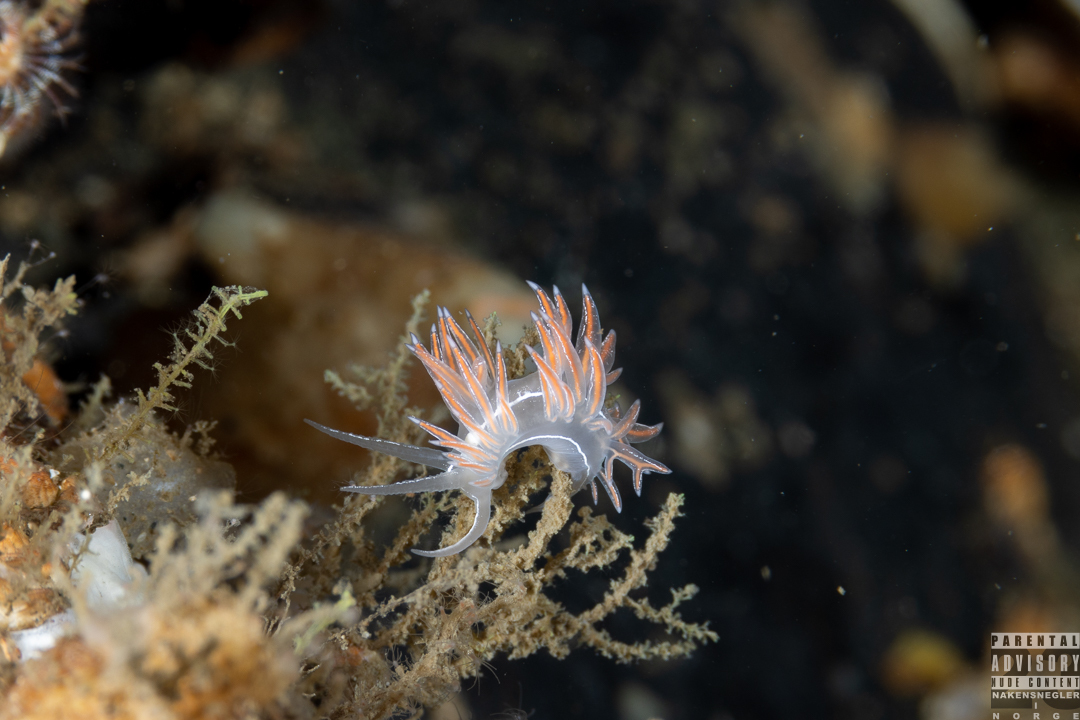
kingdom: Animalia
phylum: Mollusca
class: Gastropoda
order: Nudibranchia
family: Coryphellidae
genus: Coryphella
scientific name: Coryphella chriskaugei
